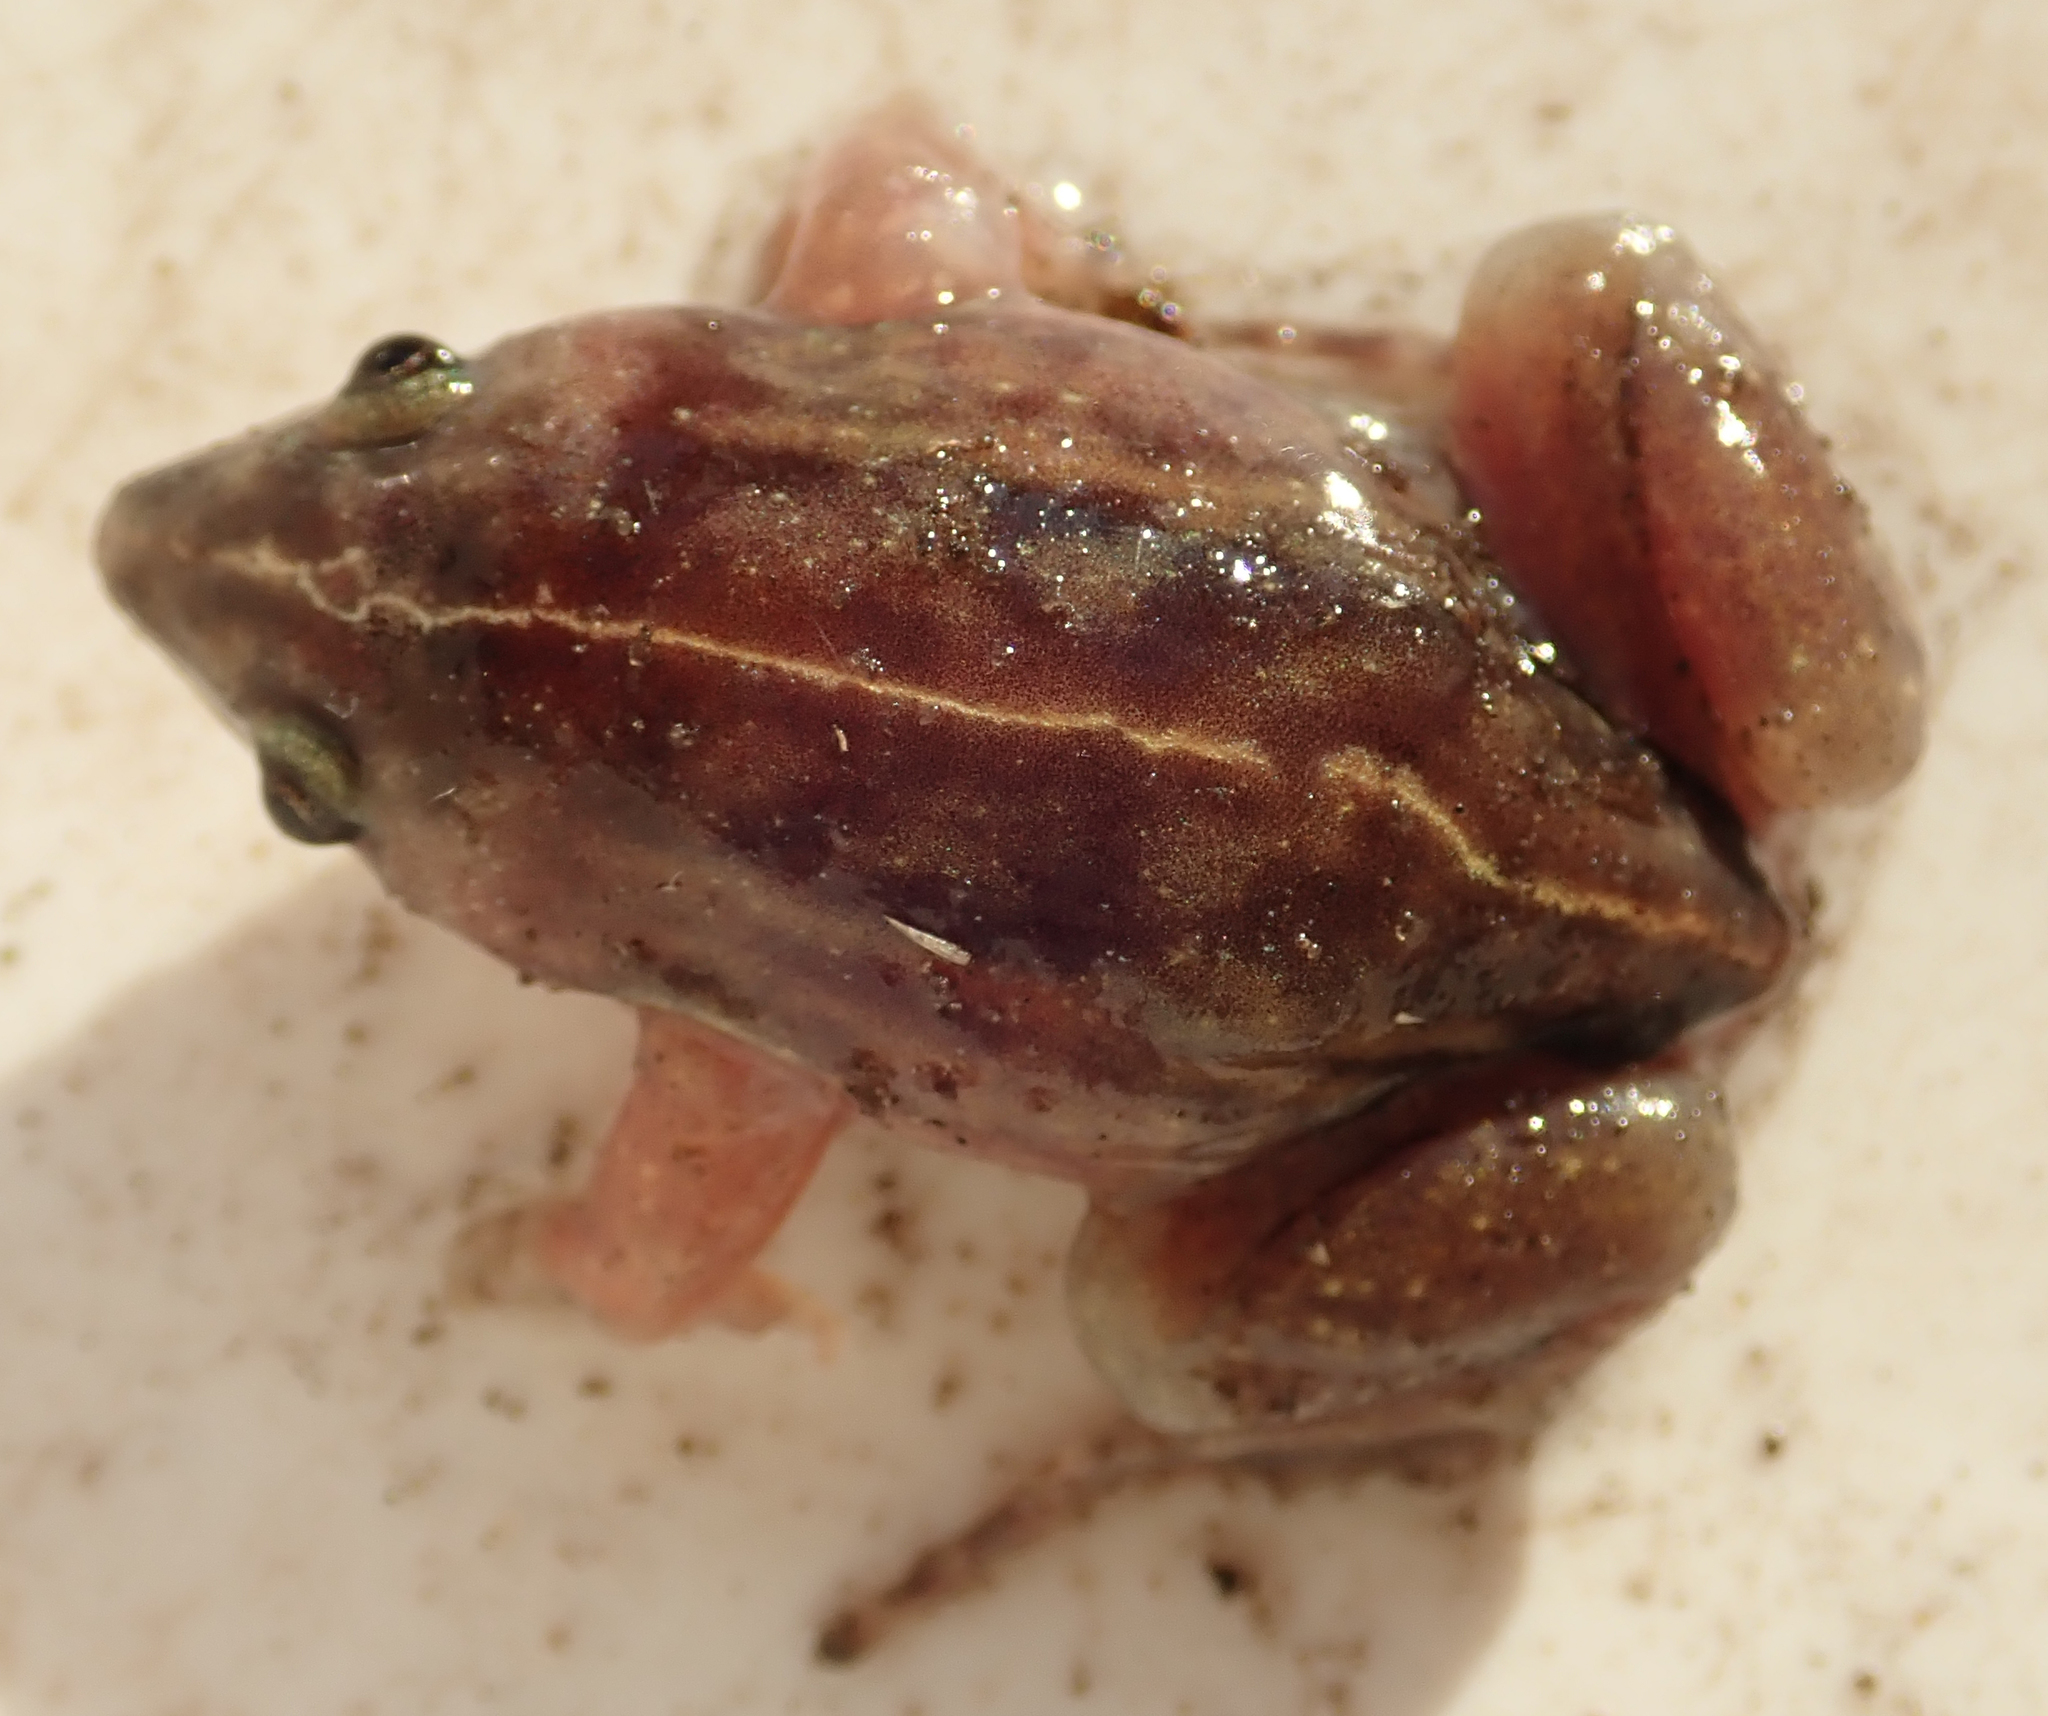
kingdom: Animalia
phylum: Chordata
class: Amphibia
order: Anura
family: Hemisotidae
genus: Hemisus
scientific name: Hemisus guineensis
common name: Guinea snout-burrower
